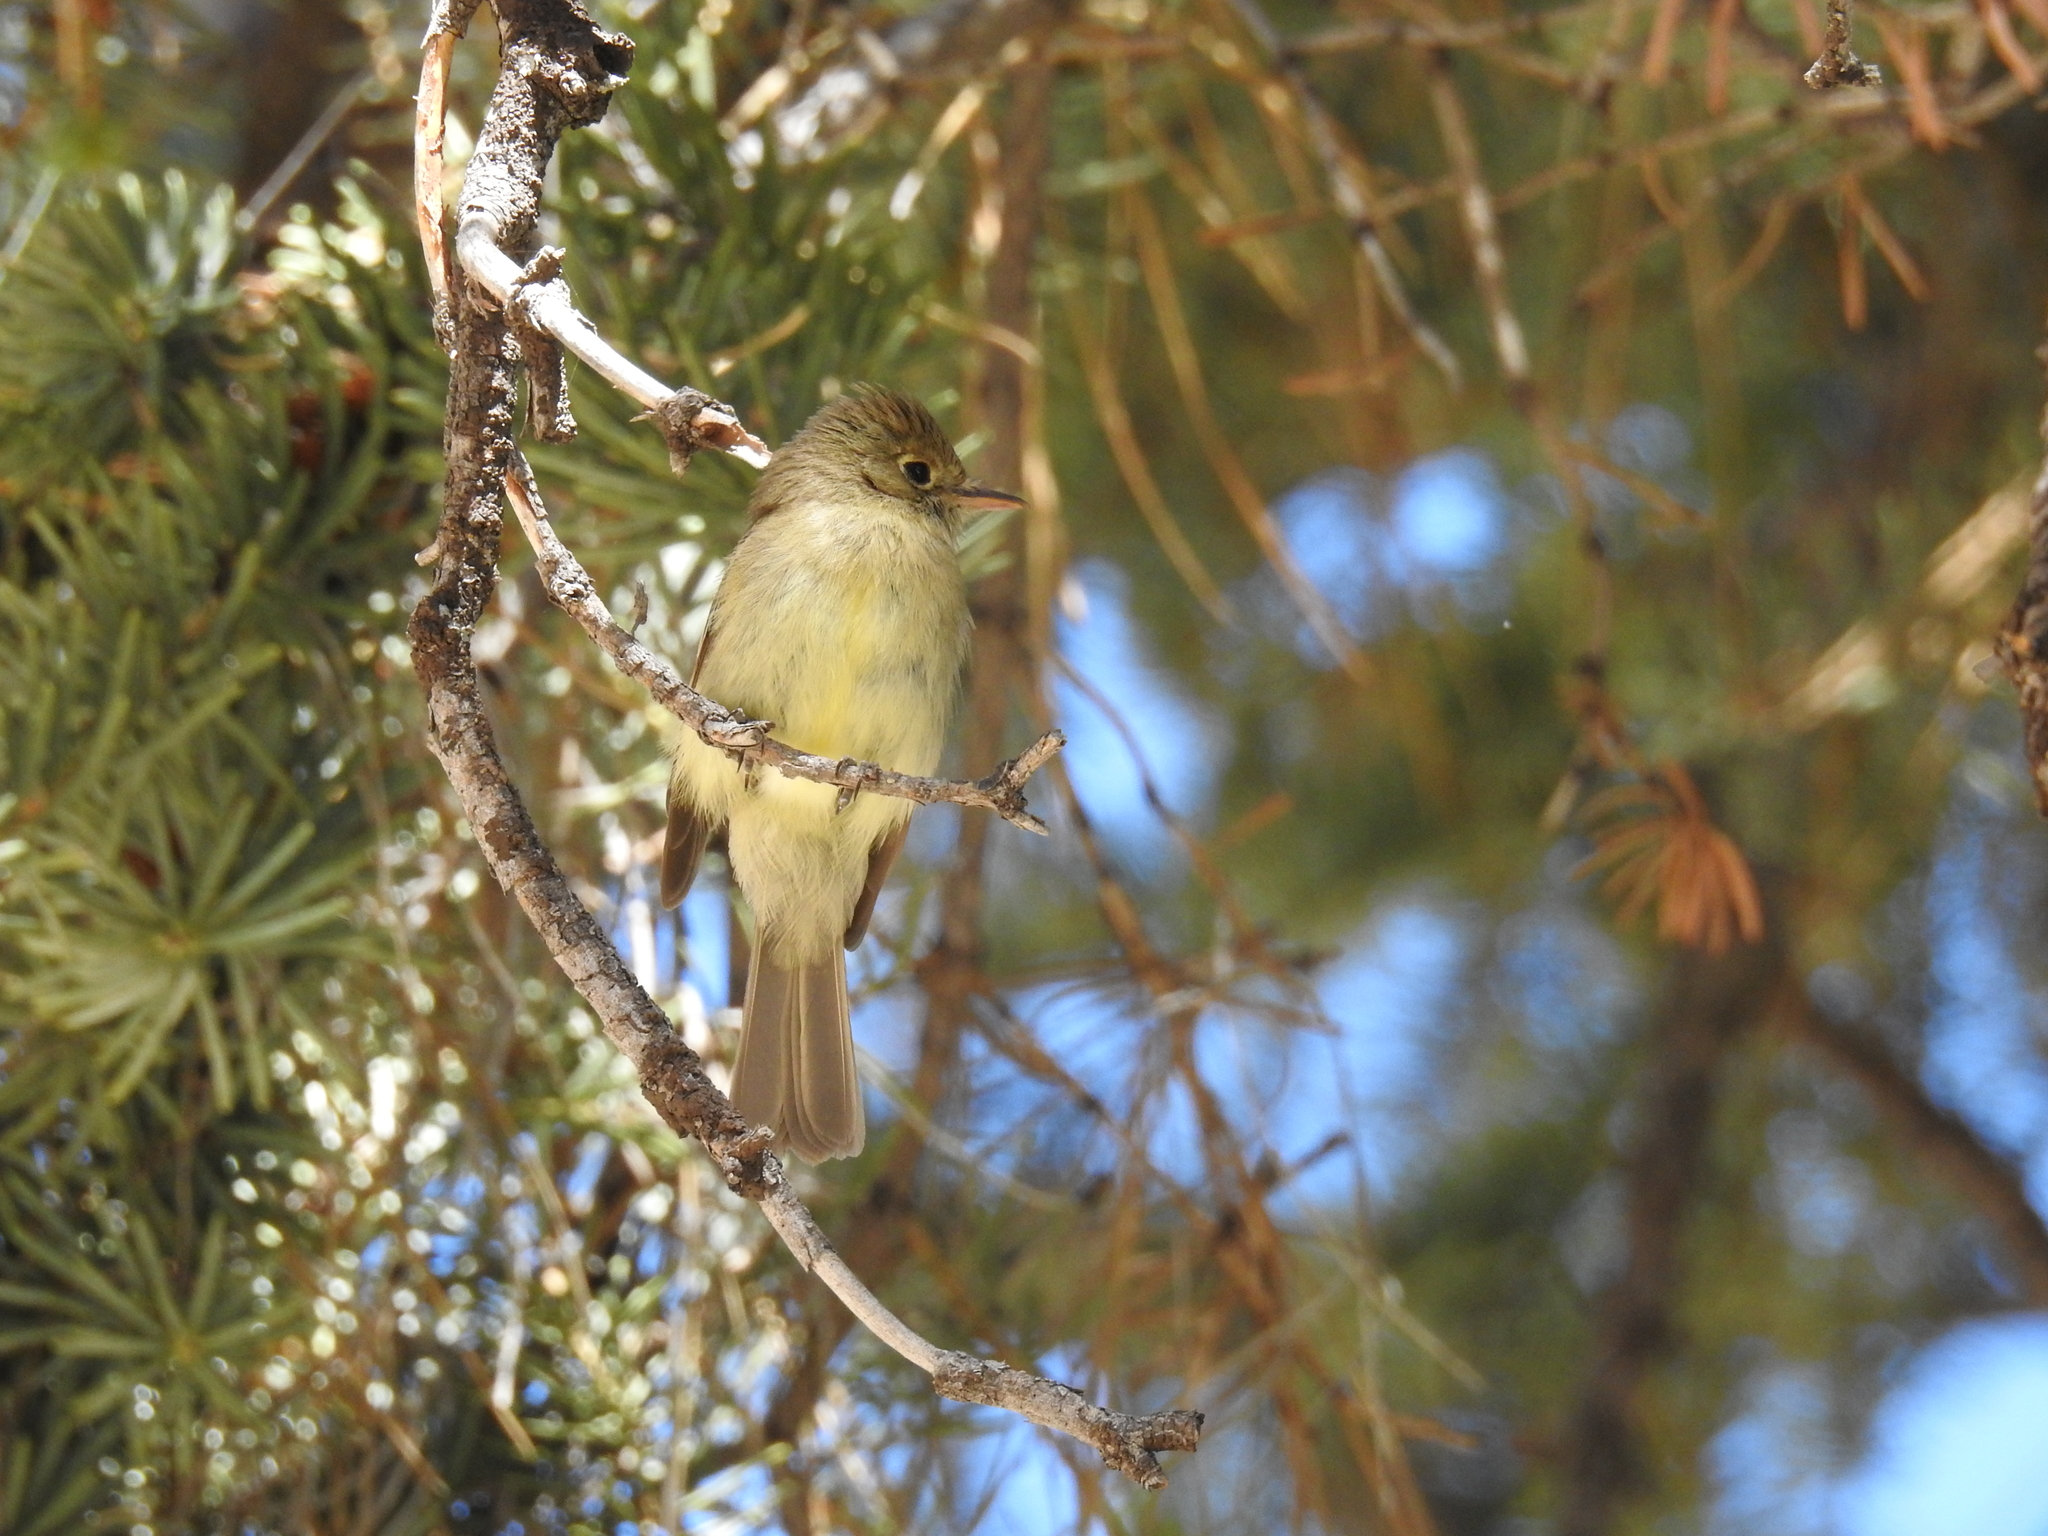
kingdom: Animalia
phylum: Chordata
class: Aves
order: Passeriformes
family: Tyrannidae
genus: Empidonax
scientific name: Empidonax difficilis
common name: Pacific-slope flycatcher
